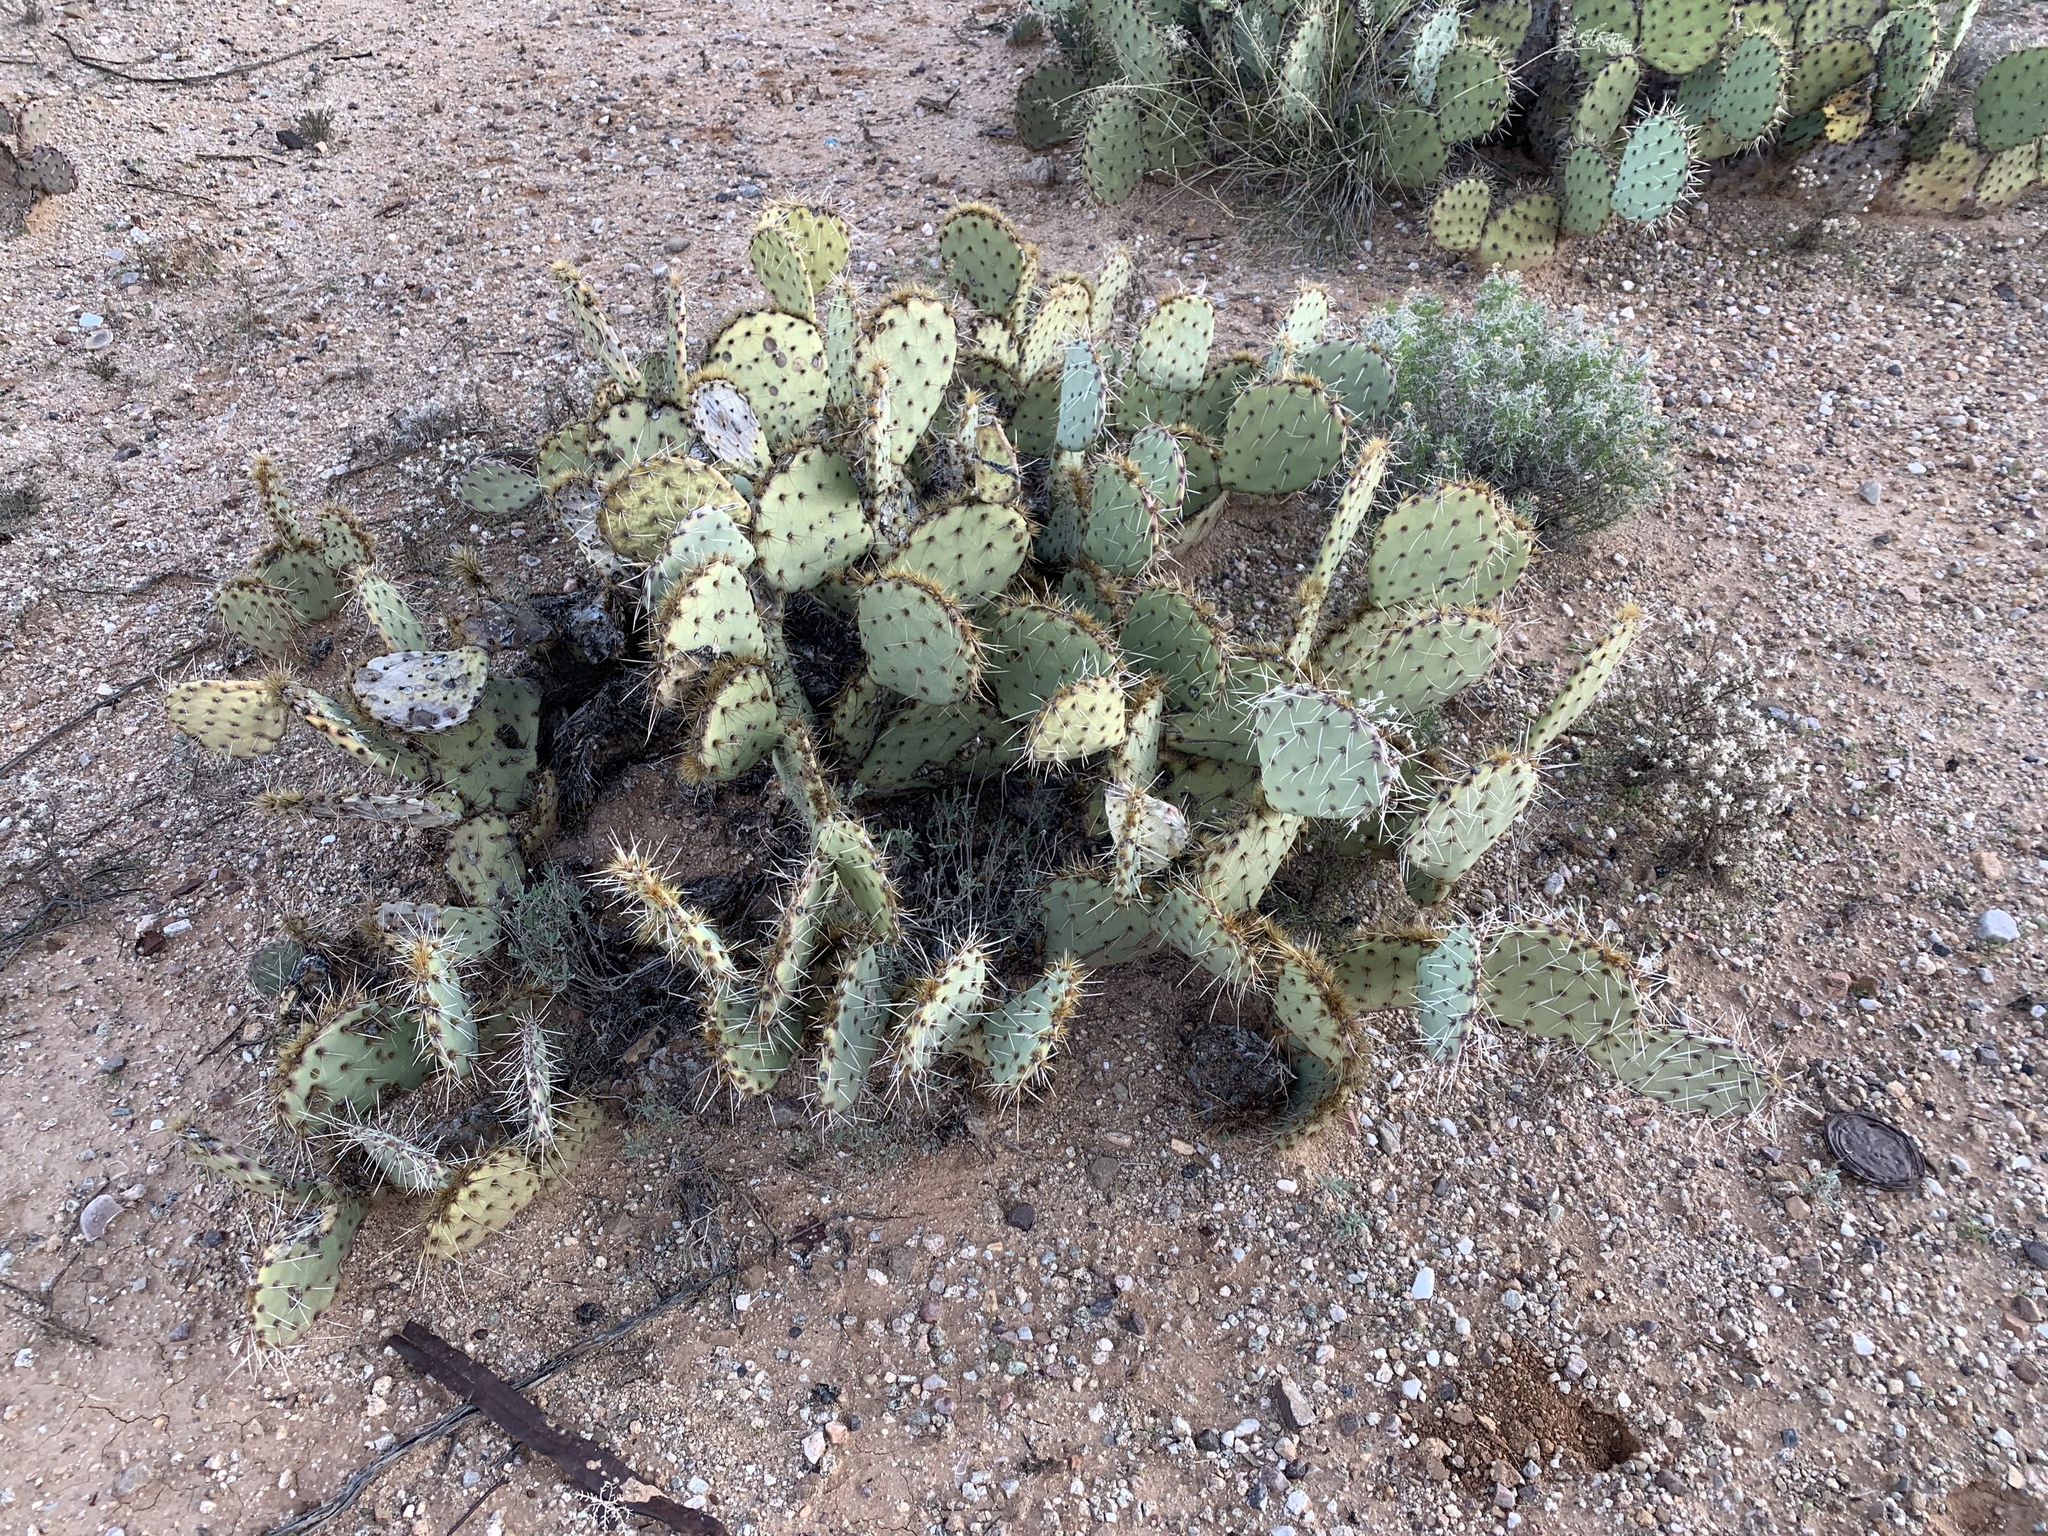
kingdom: Plantae
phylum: Tracheophyta
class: Magnoliopsida
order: Caryophyllales
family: Cactaceae
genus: Opuntia
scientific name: Opuntia phaeacantha
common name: New mexico prickly-pear
